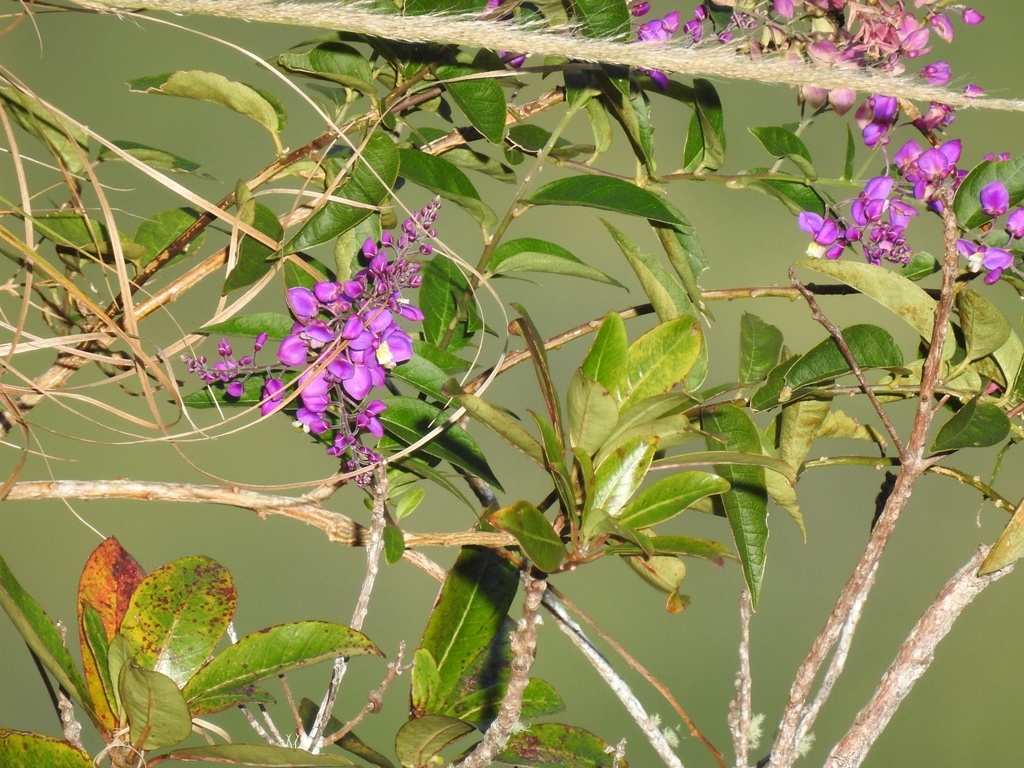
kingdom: Plantae
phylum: Tracheophyta
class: Magnoliopsida
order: Fabales
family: Polygalaceae
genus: Asemeia
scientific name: Asemeia floribunda
